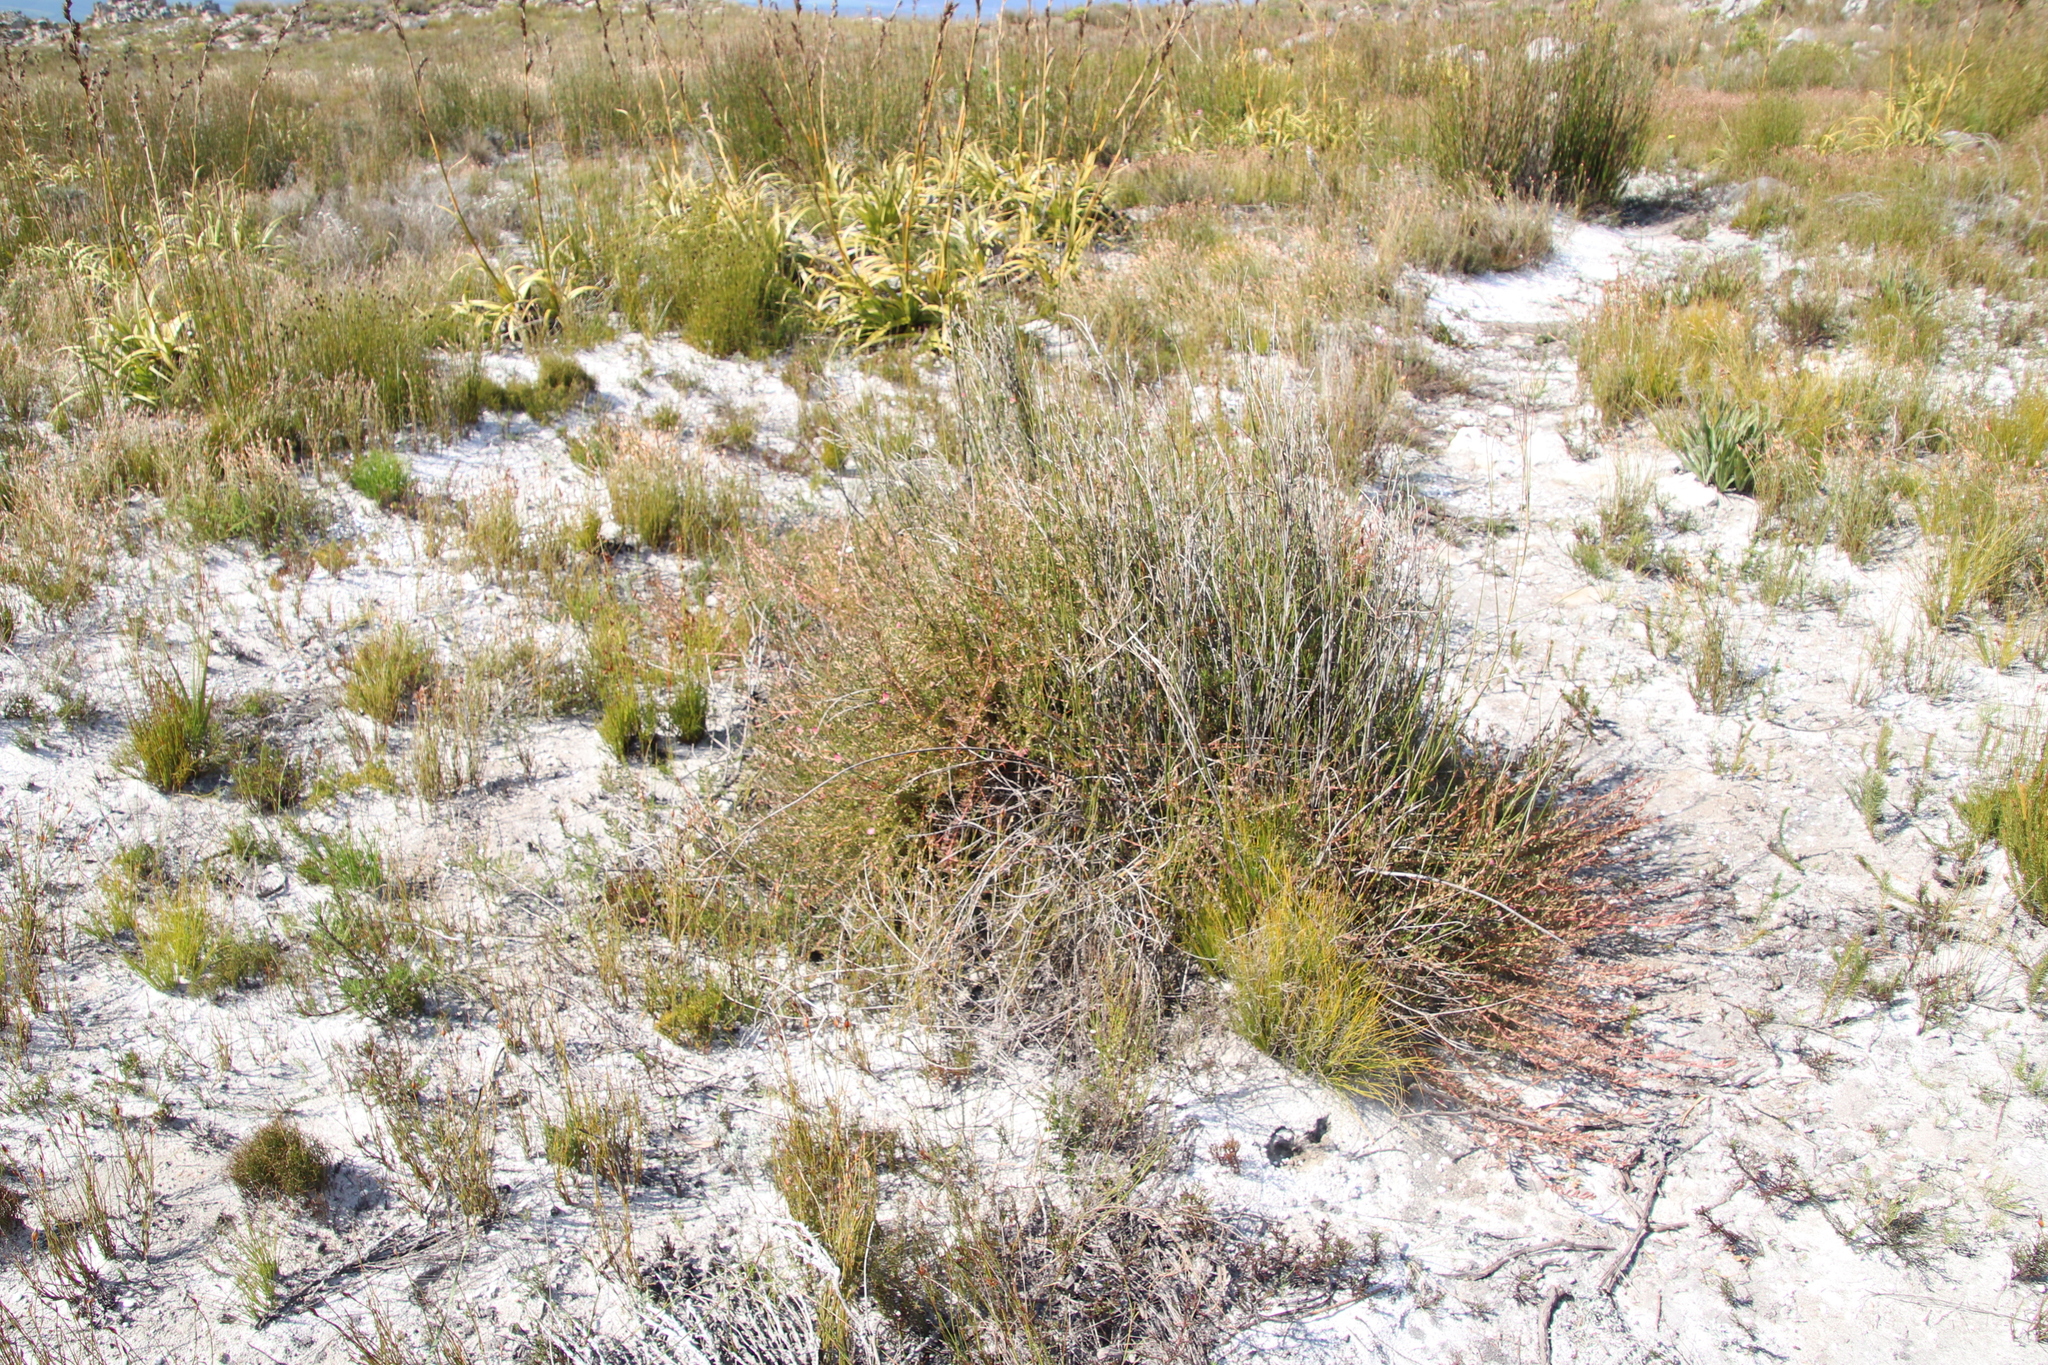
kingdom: Plantae
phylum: Tracheophyta
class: Magnoliopsida
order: Proteales
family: Proteaceae
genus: Diastella
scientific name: Diastella divaricata
